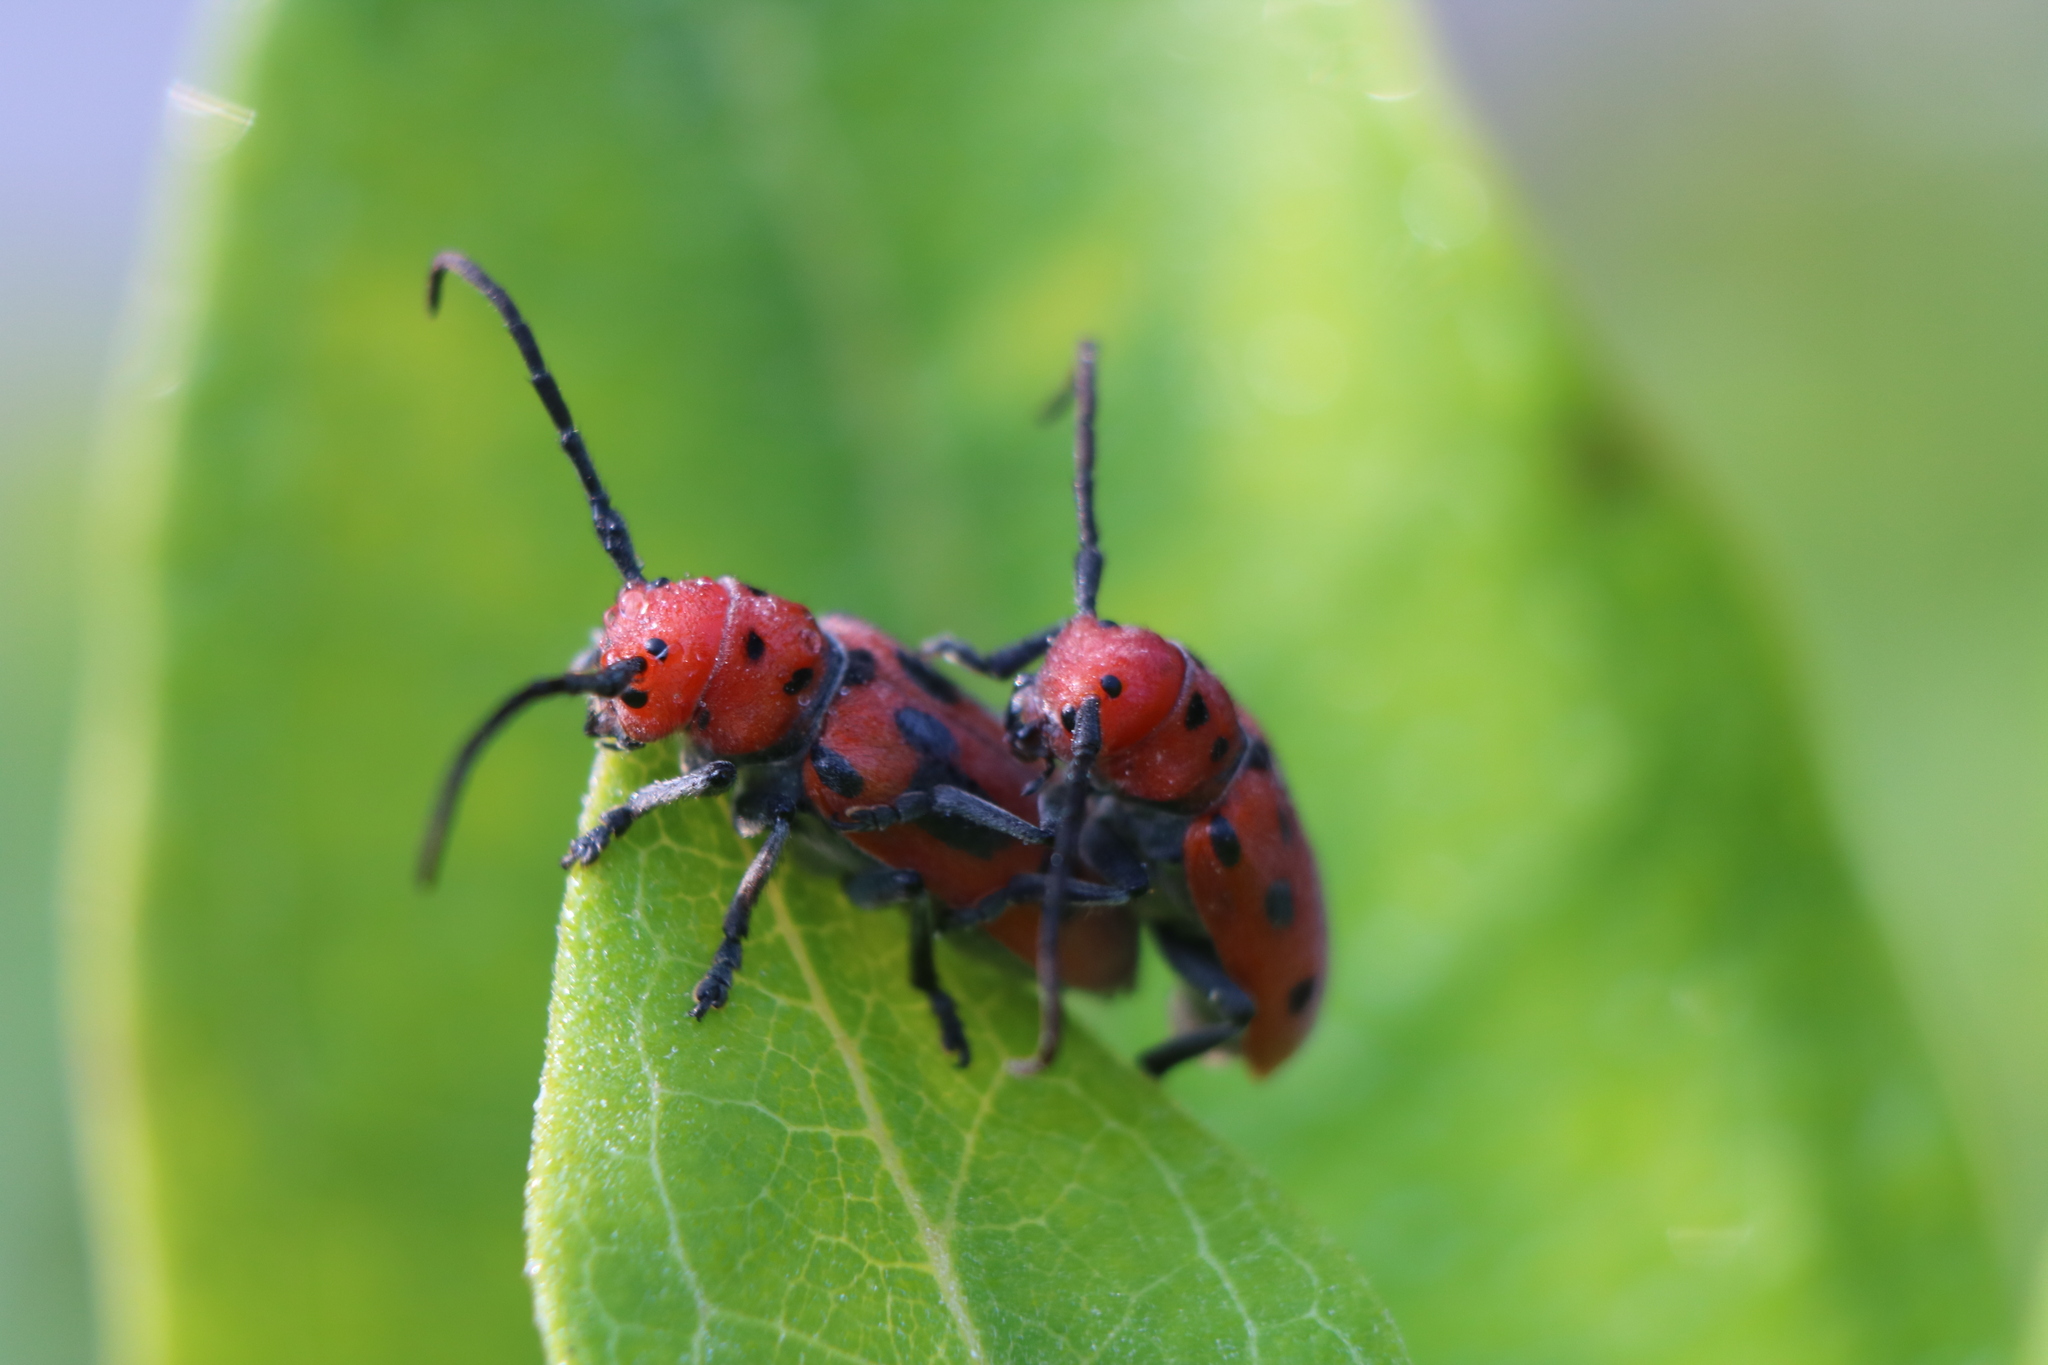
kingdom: Animalia
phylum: Arthropoda
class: Insecta
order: Coleoptera
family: Cerambycidae
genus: Tetraopes
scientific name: Tetraopes tetrophthalmus
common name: Red milkweed beetle
